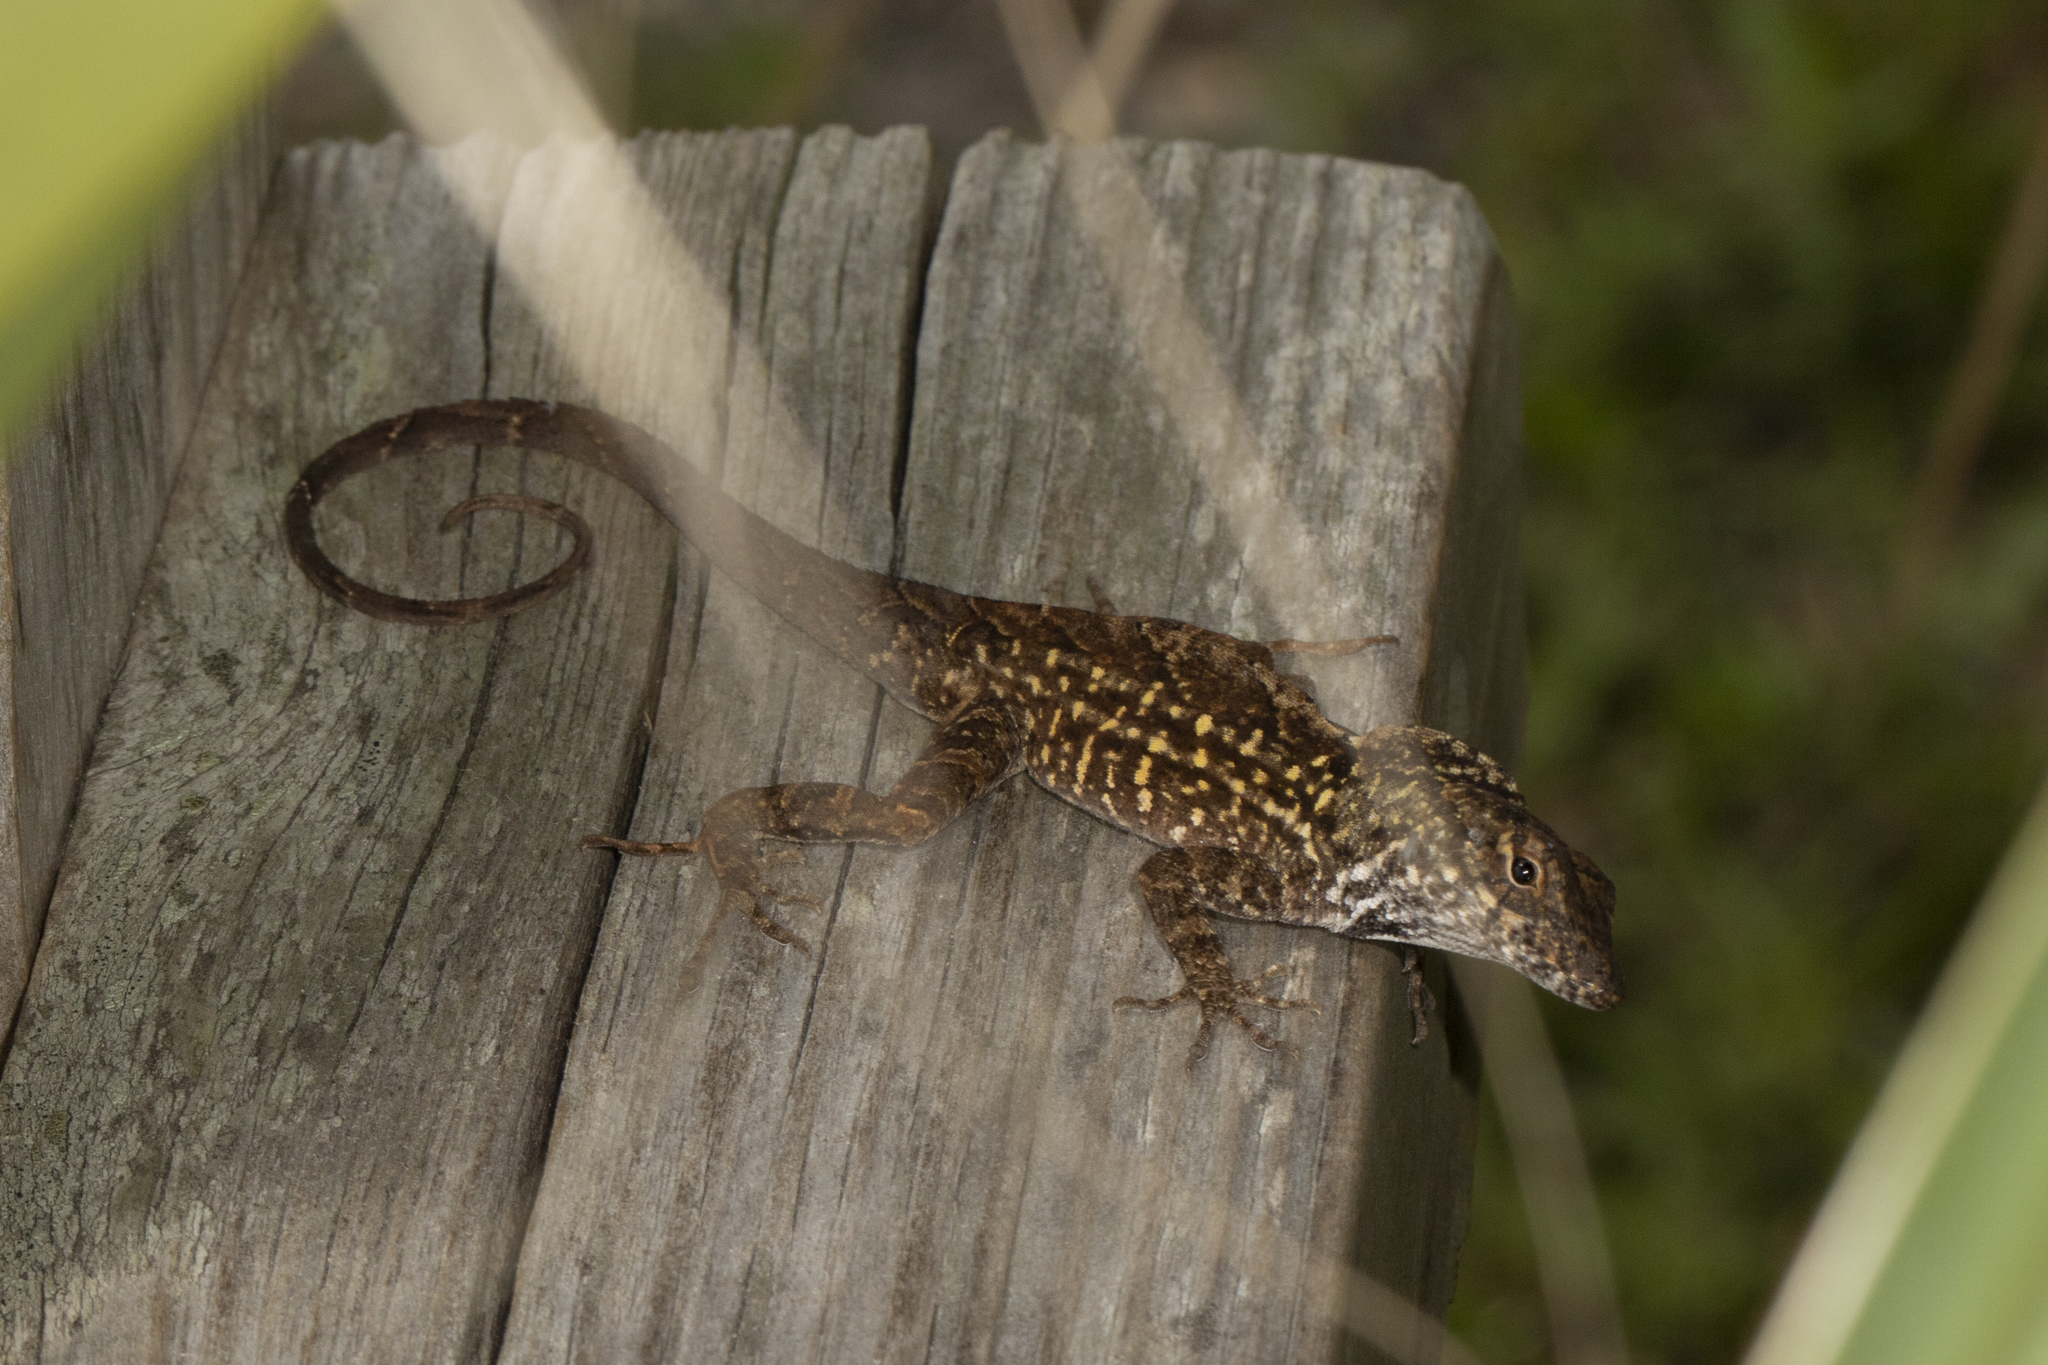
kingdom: Animalia
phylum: Chordata
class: Squamata
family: Dactyloidae
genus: Anolis
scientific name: Anolis sagrei
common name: Brown anole
